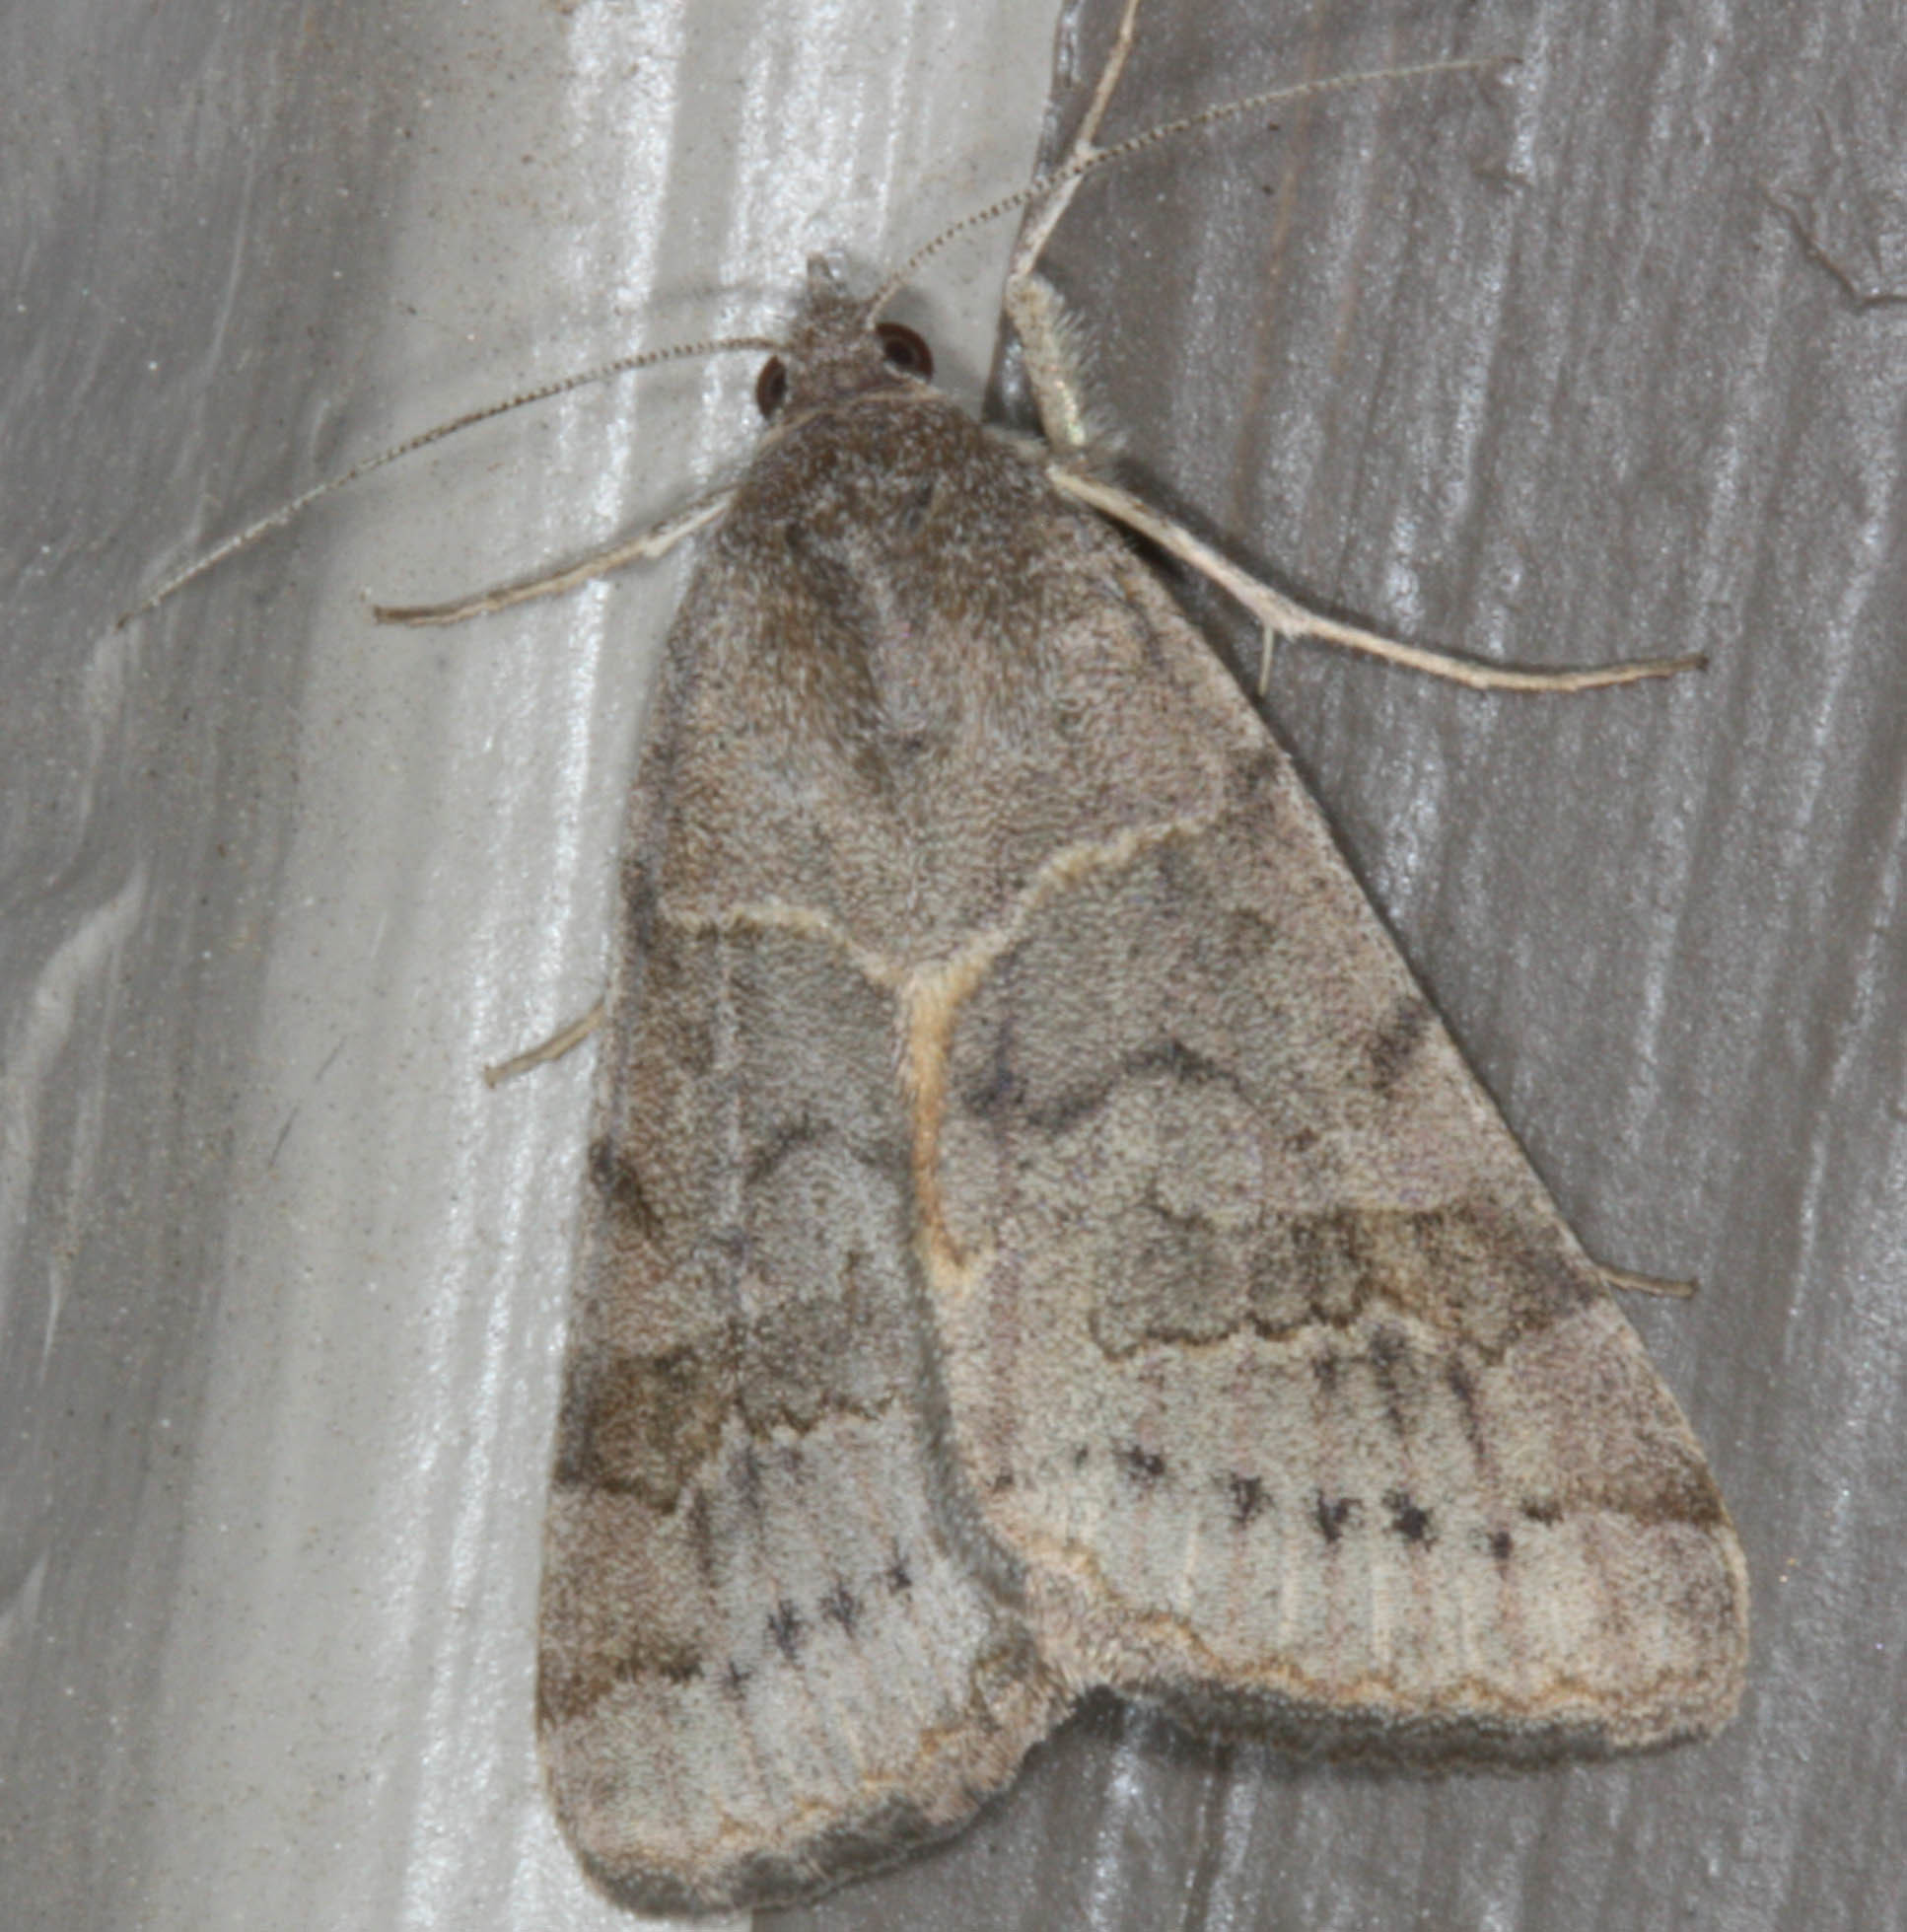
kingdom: Animalia
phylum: Arthropoda
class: Insecta
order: Lepidoptera
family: Erebidae
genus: Caenurgina
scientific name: Caenurgina erechtea
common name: Forage looper moth
